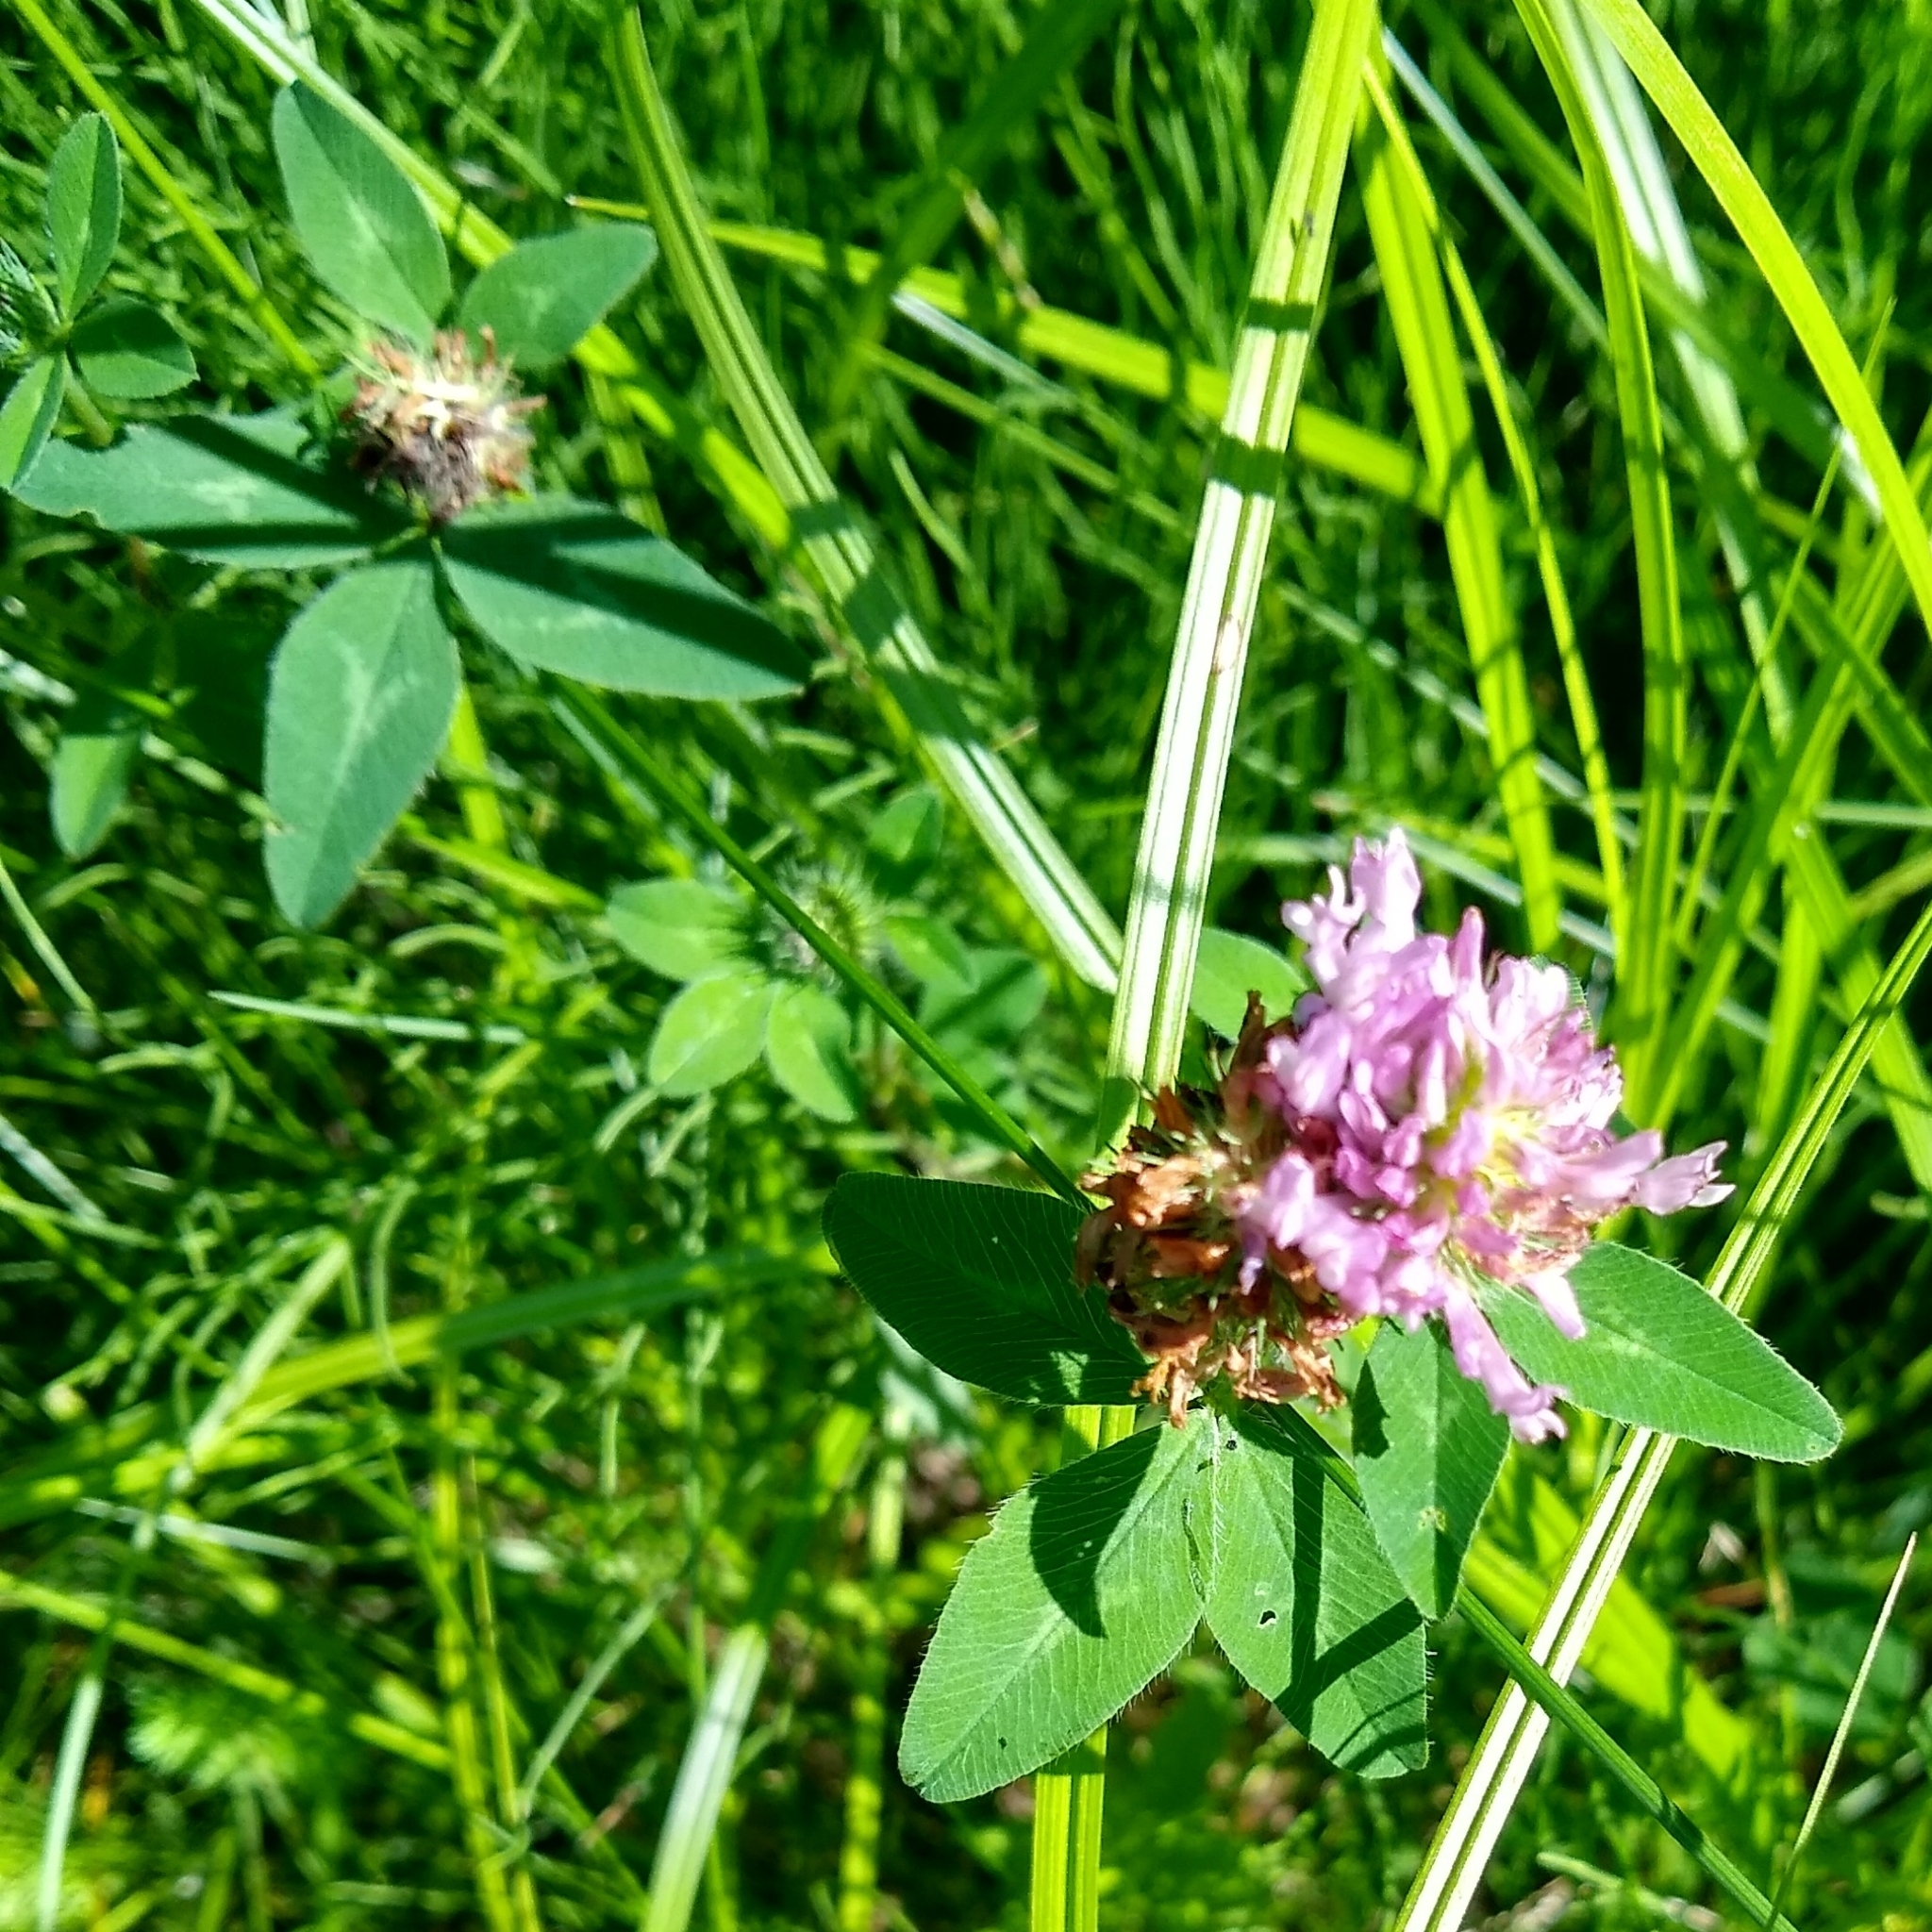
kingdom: Plantae
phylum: Tracheophyta
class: Magnoliopsida
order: Fabales
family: Fabaceae
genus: Trifolium
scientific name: Trifolium pratense
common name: Red clover
